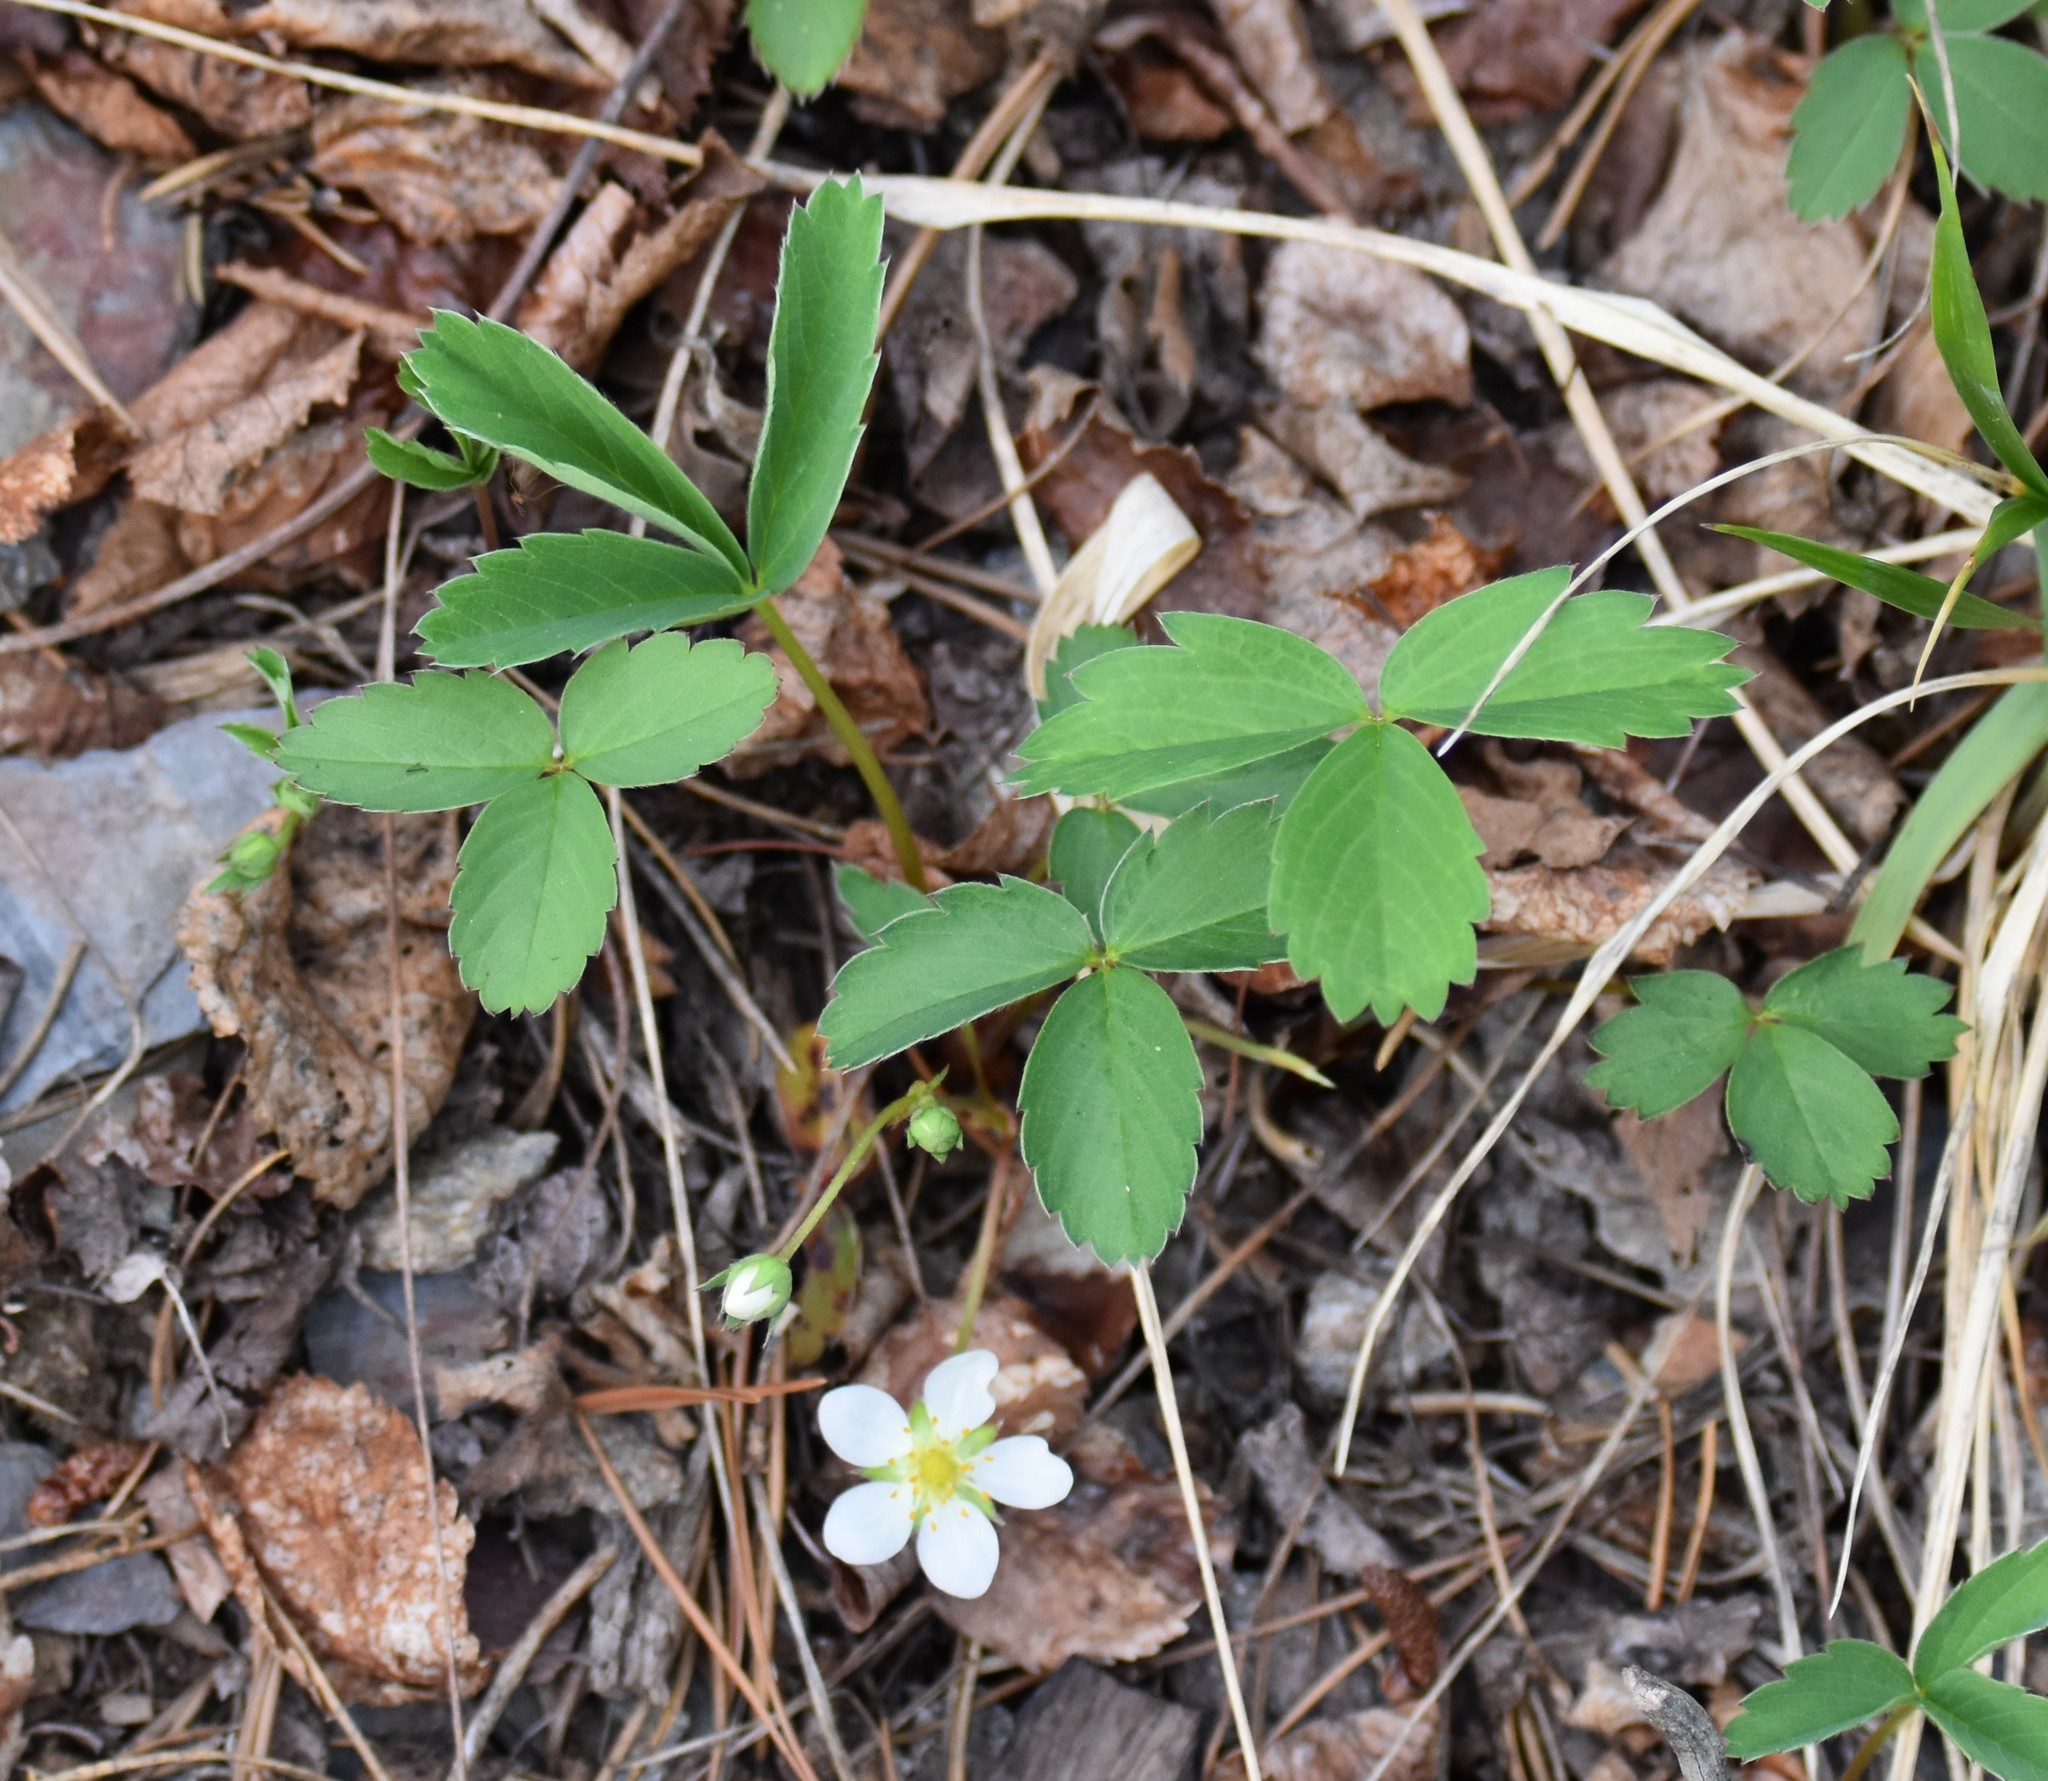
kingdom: Plantae
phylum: Tracheophyta
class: Magnoliopsida
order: Rosales
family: Rosaceae
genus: Fragaria
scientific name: Fragaria virginiana
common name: Thickleaved wild strawberry
